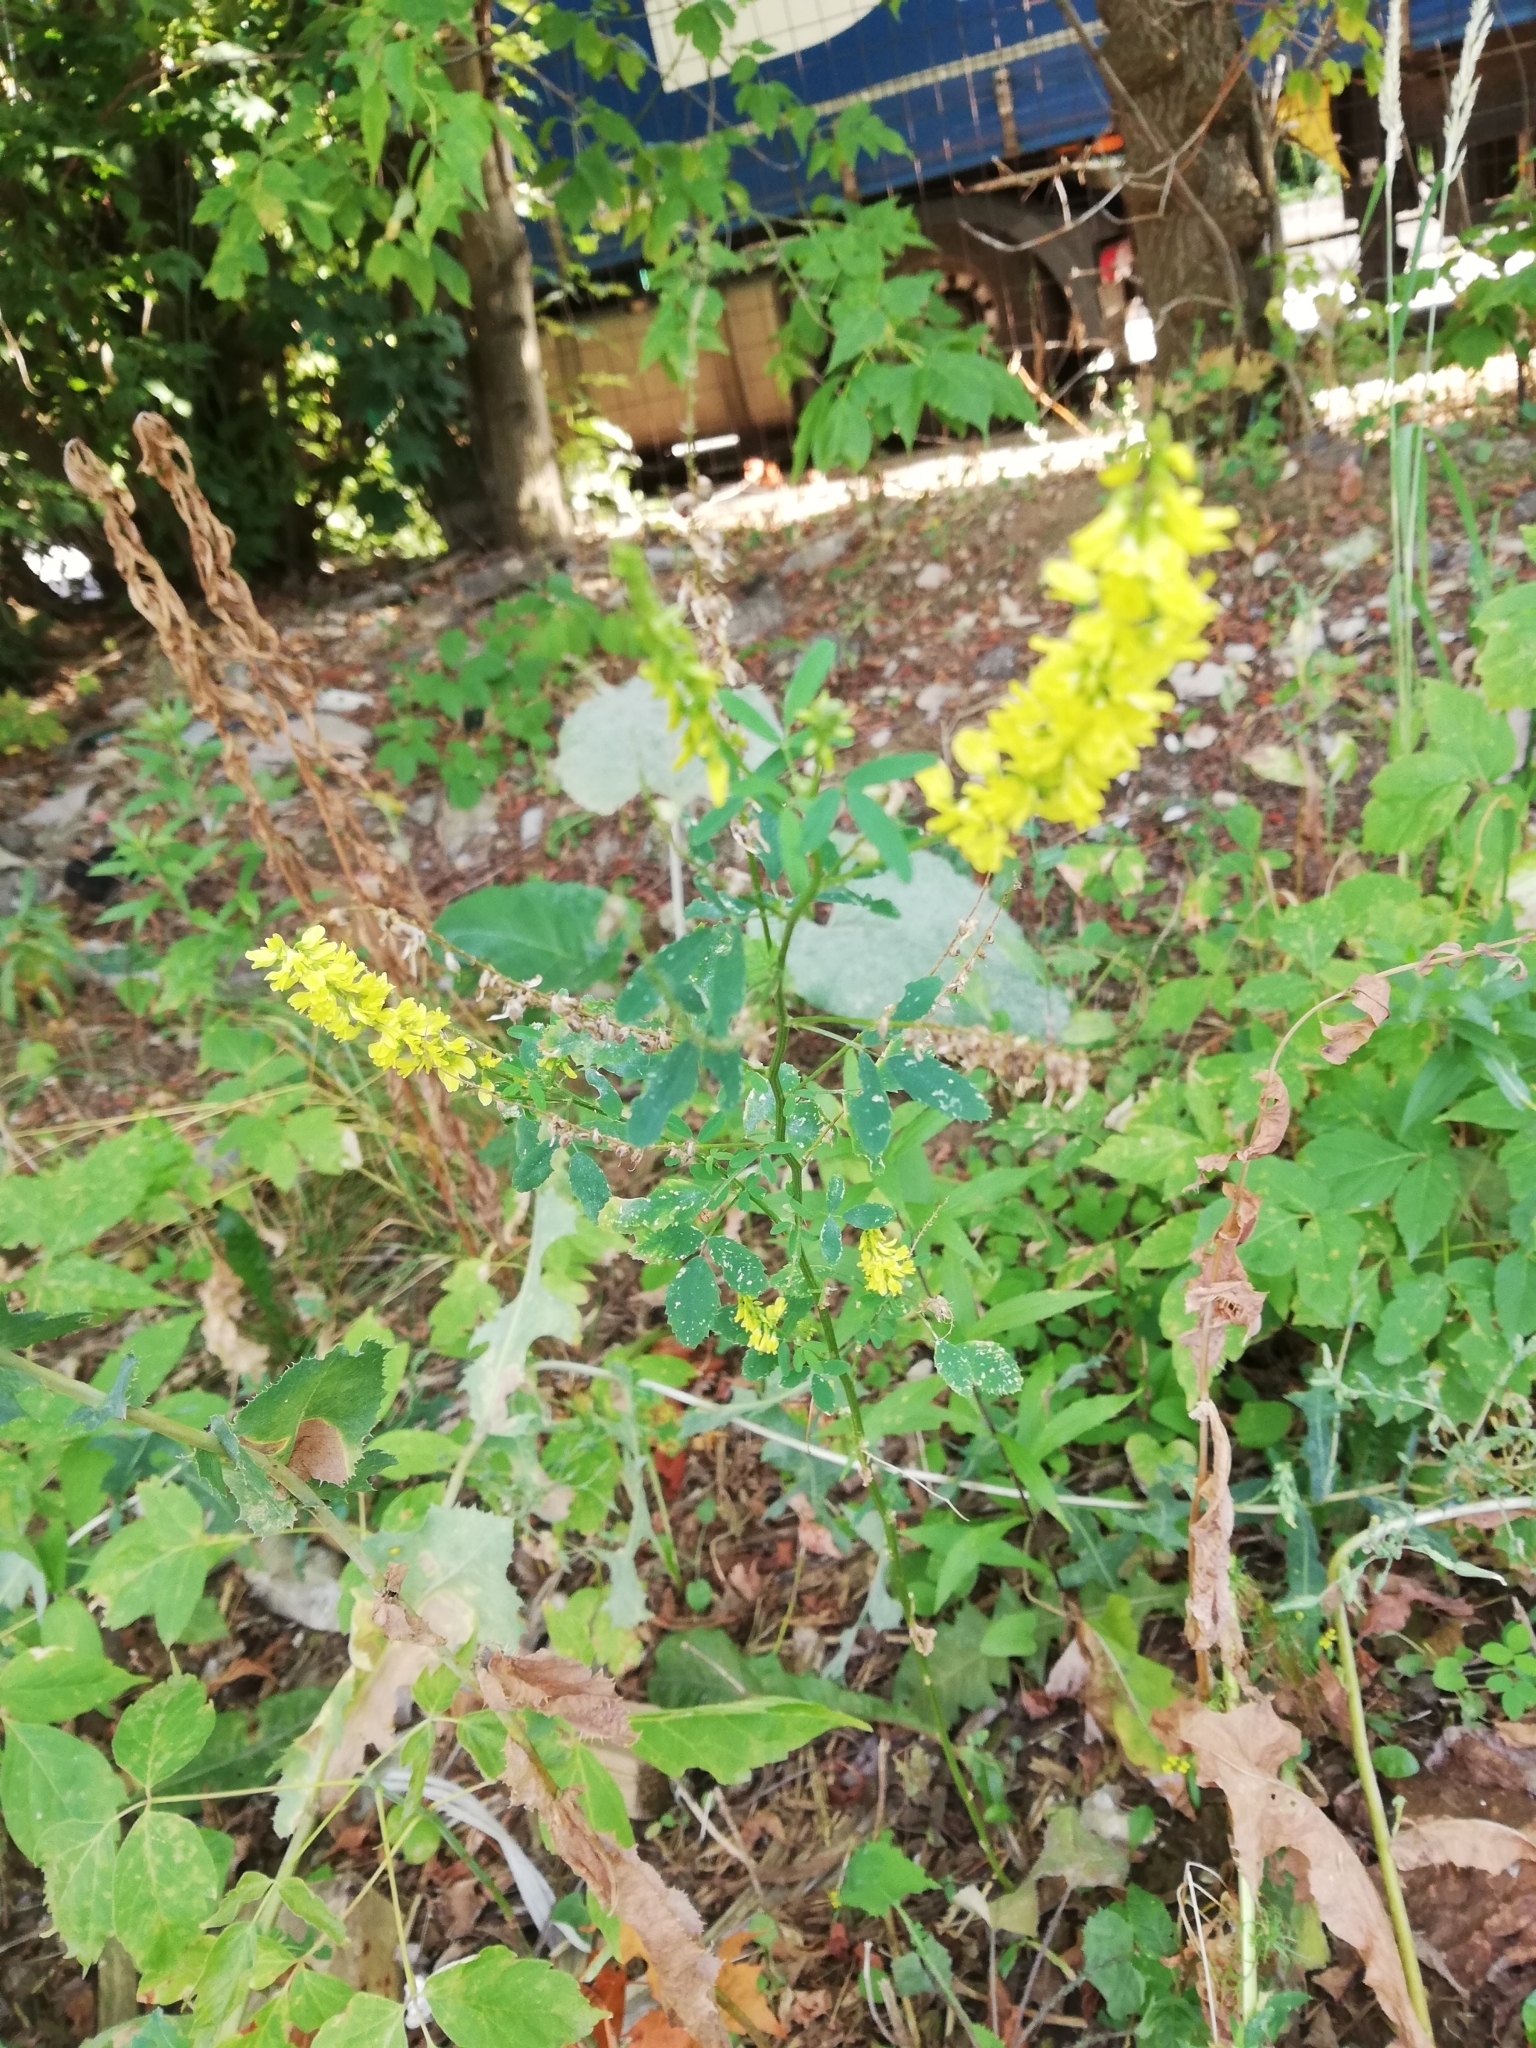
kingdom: Plantae
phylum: Tracheophyta
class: Magnoliopsida
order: Fabales
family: Fabaceae
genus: Melilotus
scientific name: Melilotus officinalis
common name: Sweetclover
